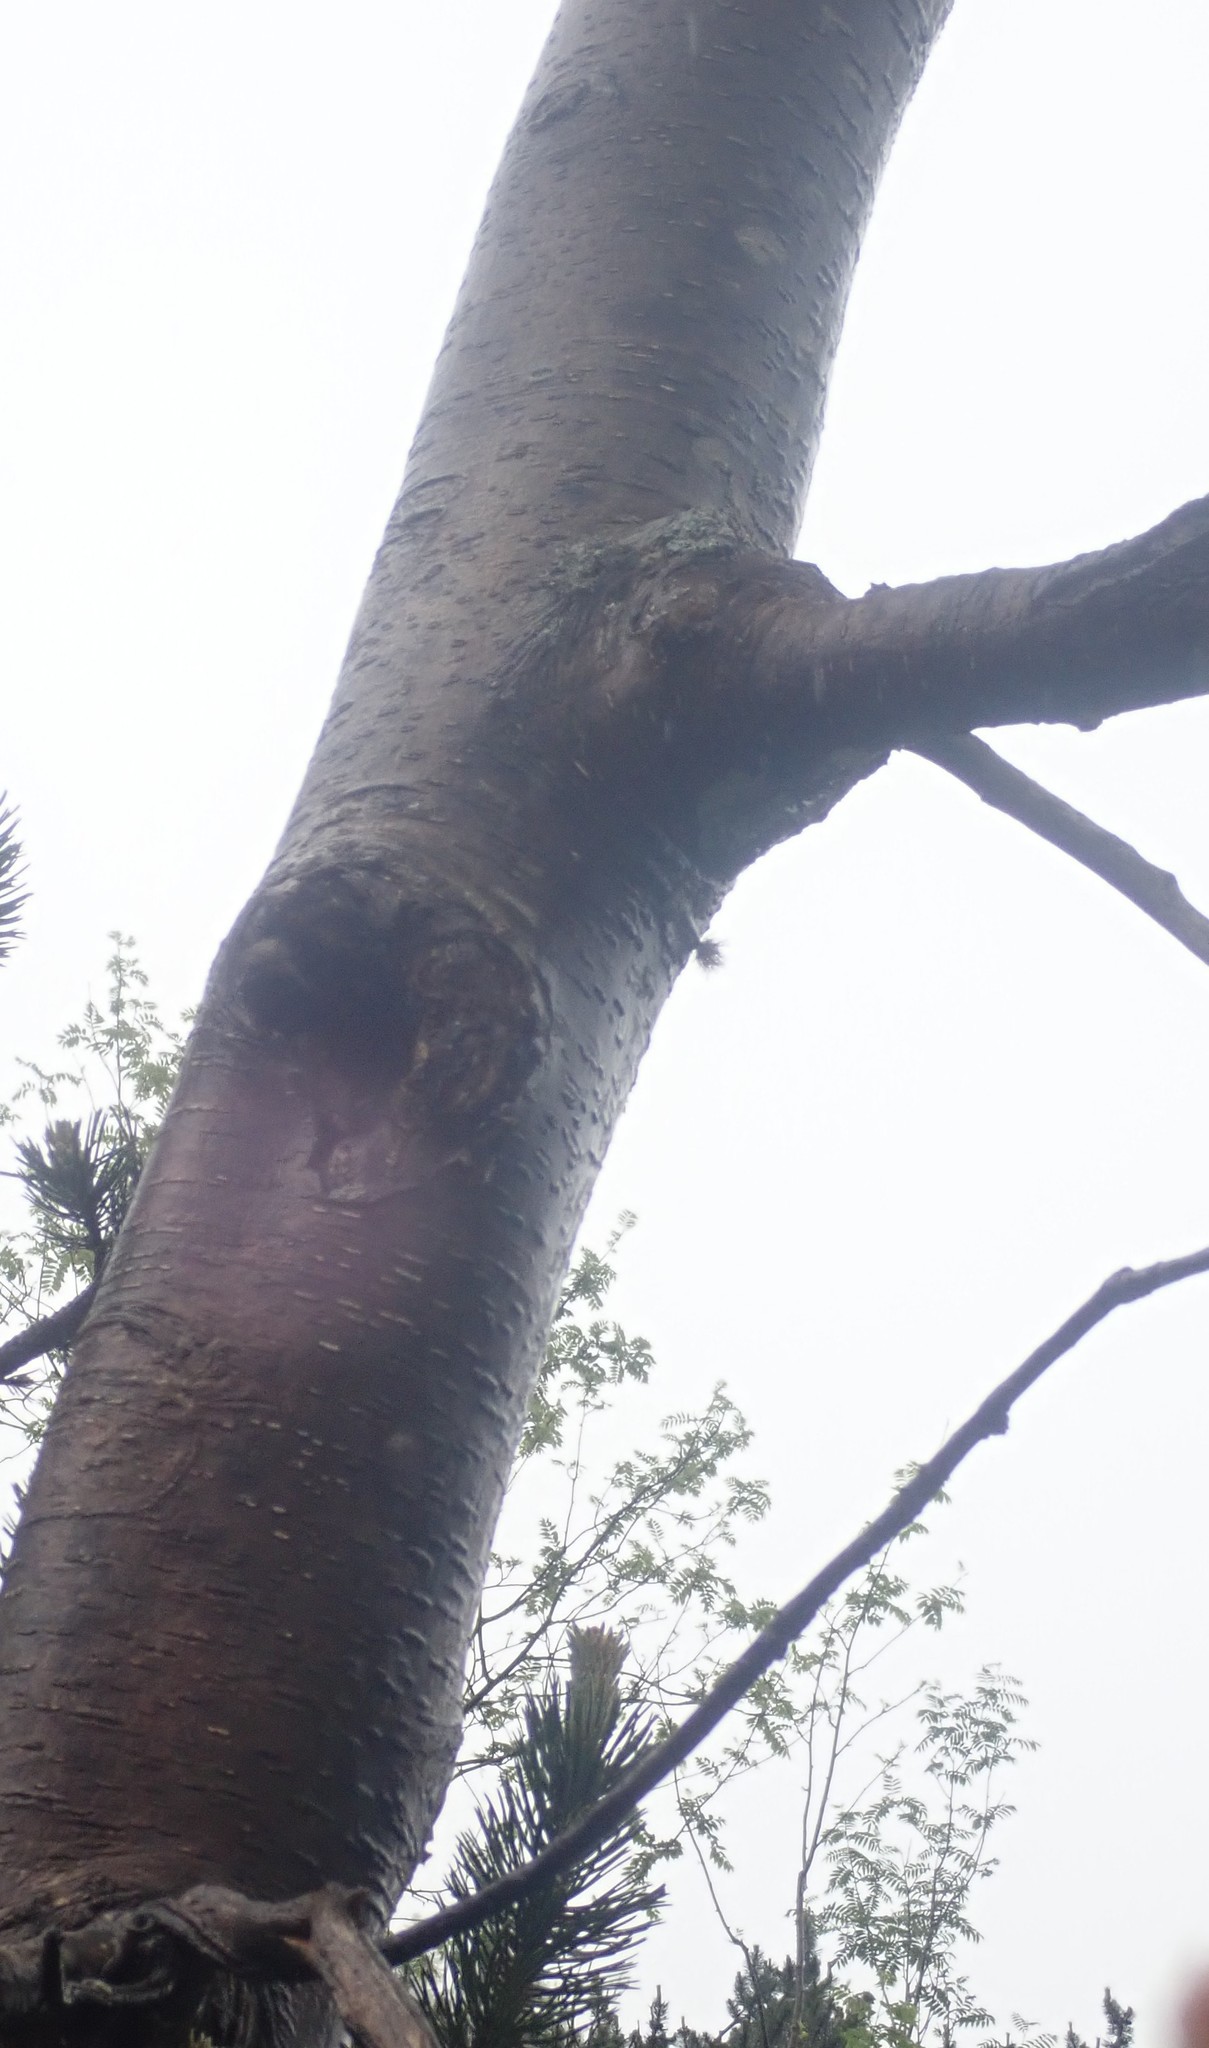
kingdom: Plantae
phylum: Tracheophyta
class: Magnoliopsida
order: Rosales
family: Rosaceae
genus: Sorbus
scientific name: Sorbus aucuparia
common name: Rowan
